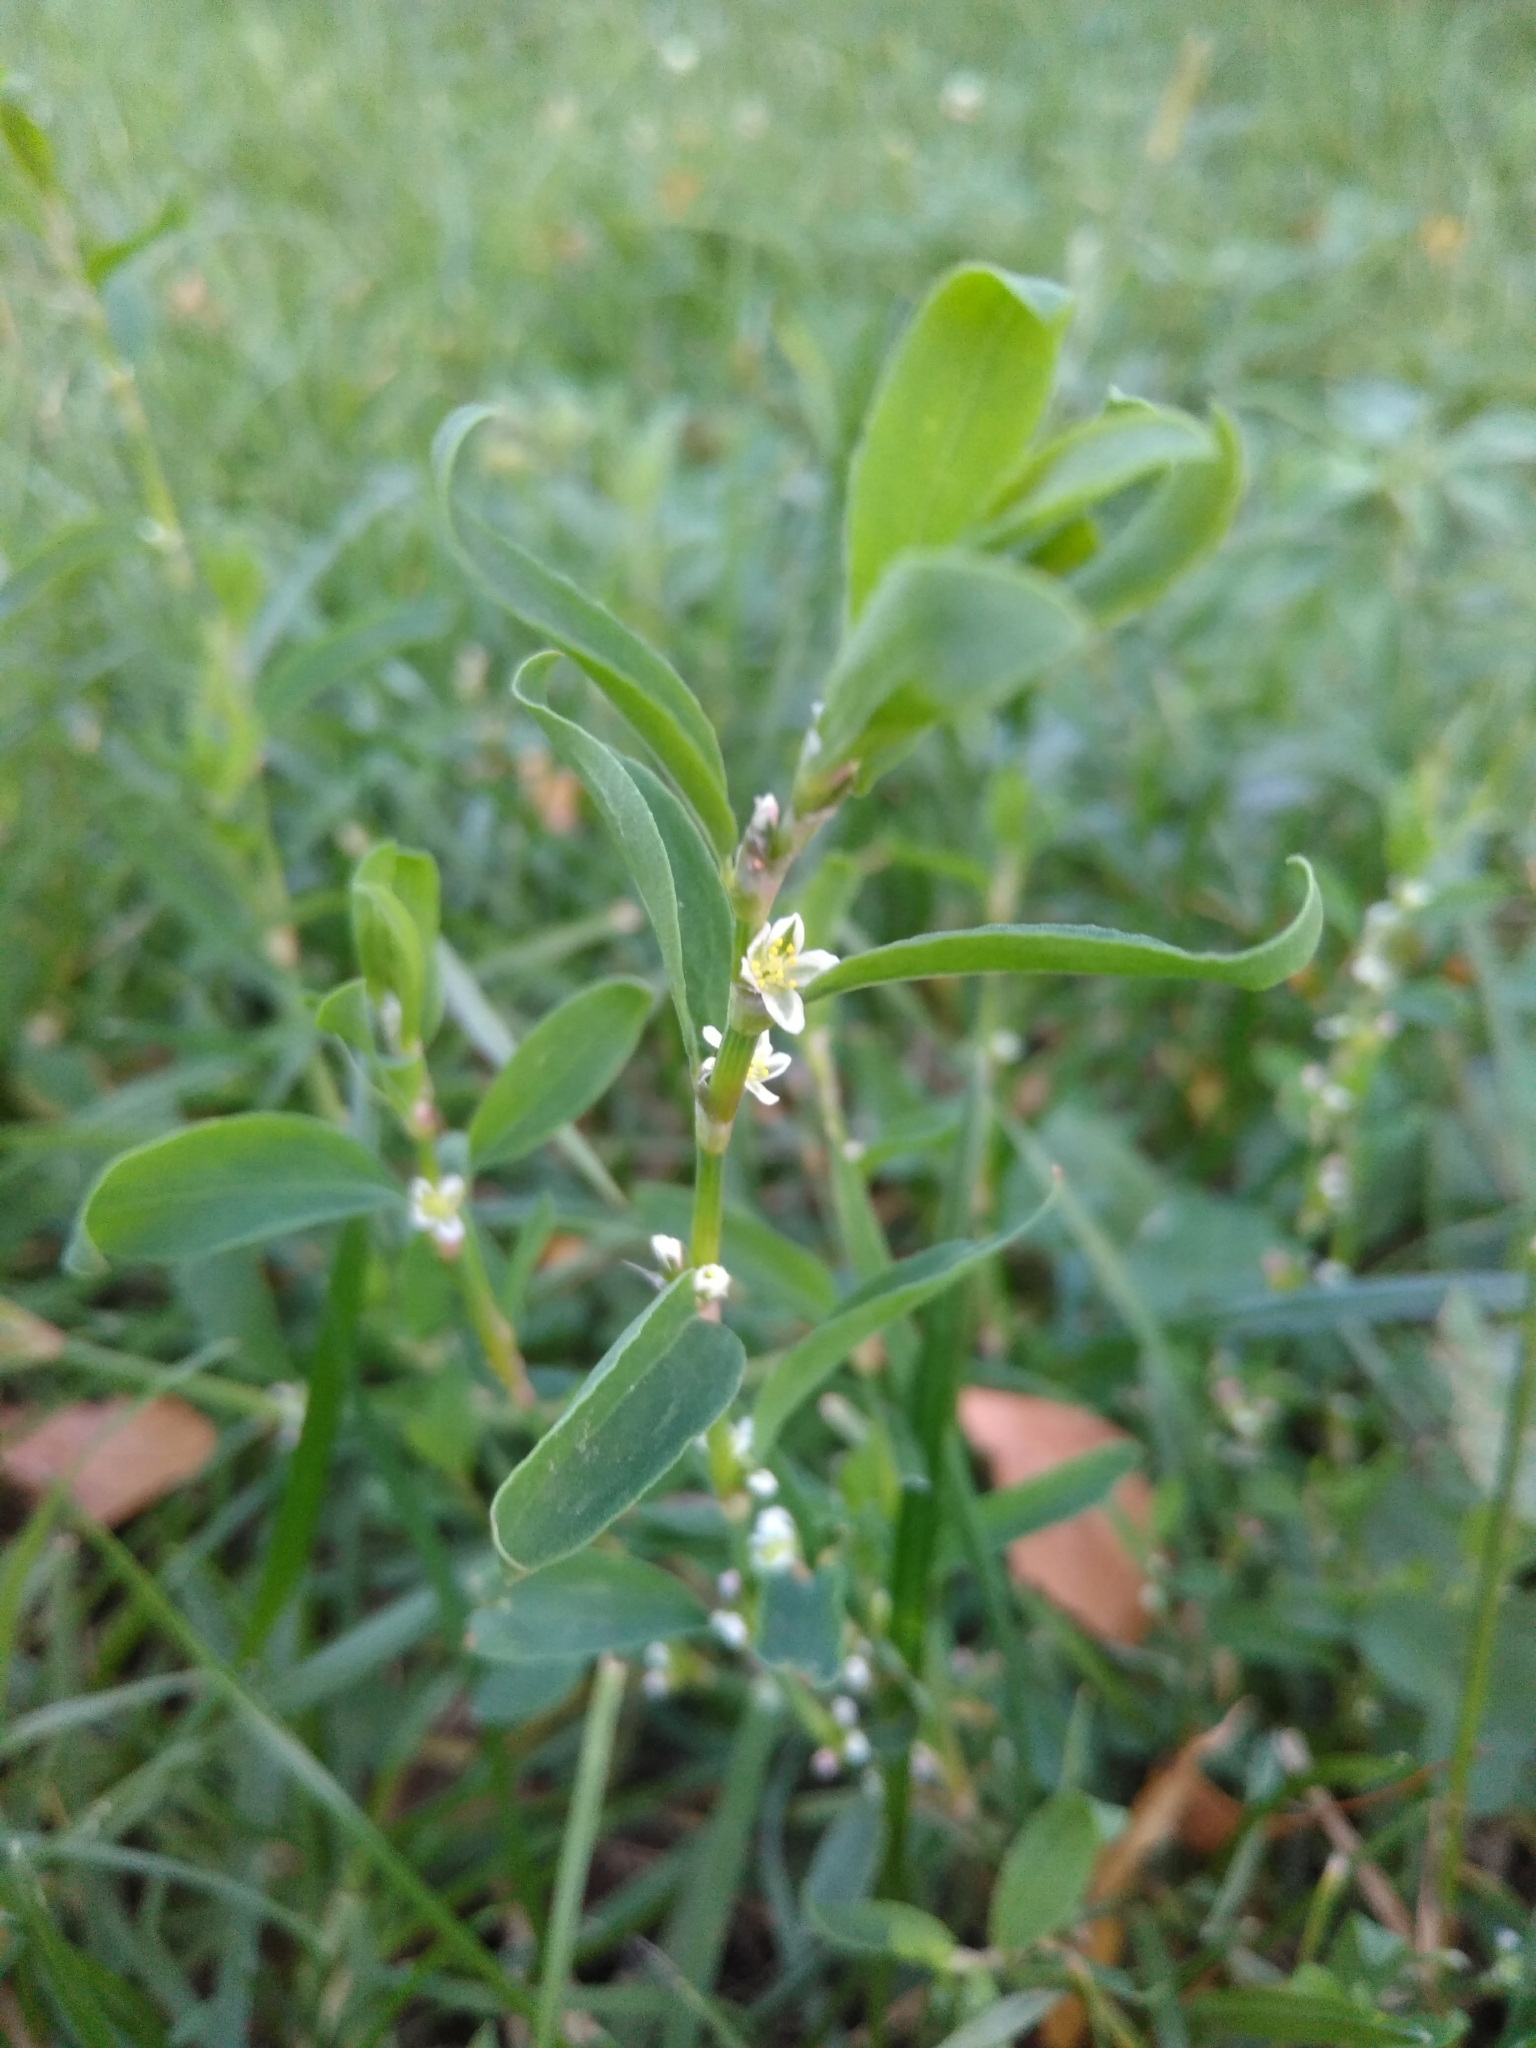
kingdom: Plantae
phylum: Tracheophyta
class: Magnoliopsida
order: Caryophyllales
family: Polygonaceae
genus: Polygonum
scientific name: Polygonum
